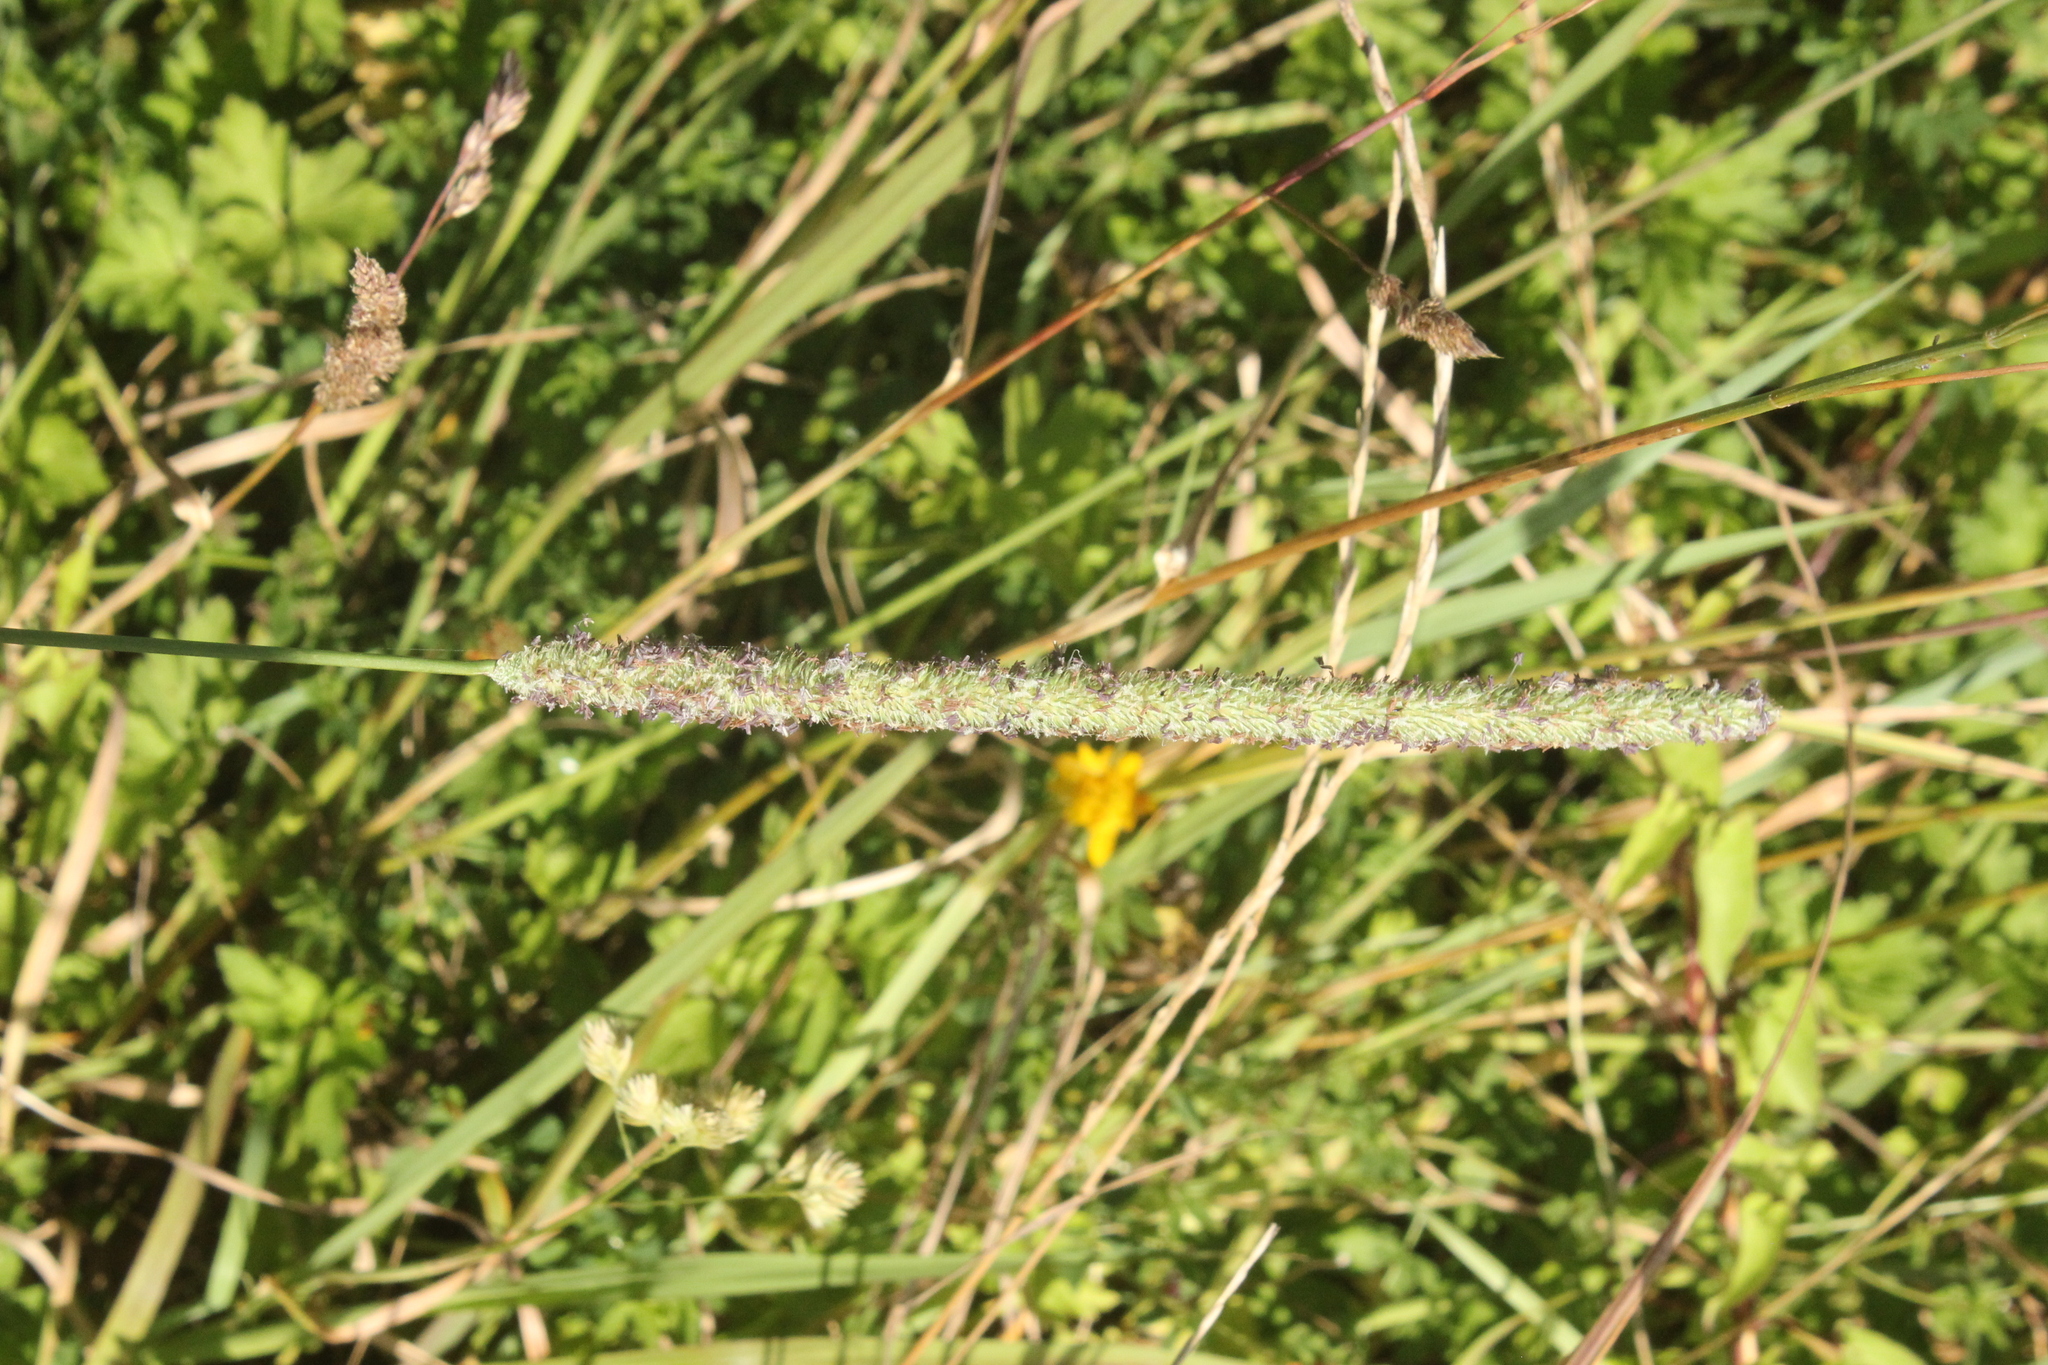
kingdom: Plantae
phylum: Tracheophyta
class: Liliopsida
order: Poales
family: Poaceae
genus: Phleum
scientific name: Phleum pratense
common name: Timothy grass
